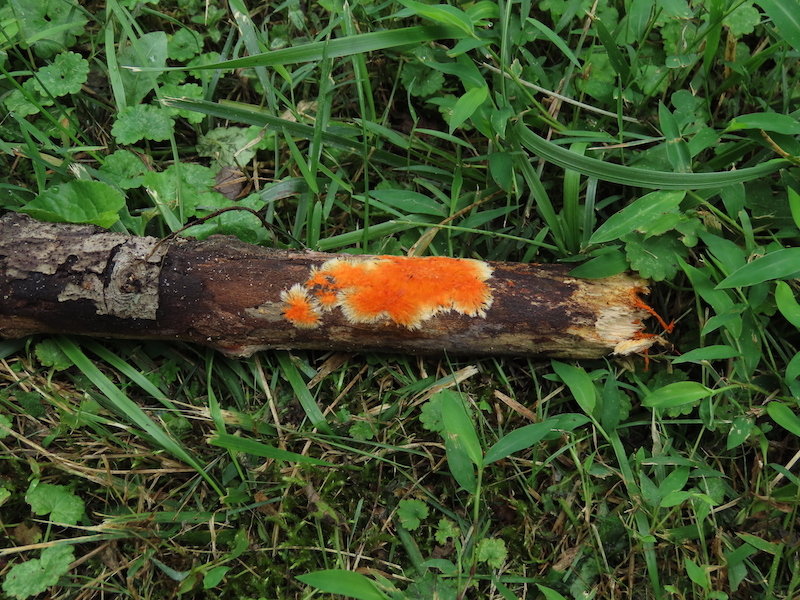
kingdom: Fungi
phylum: Basidiomycota
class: Agaricomycetes
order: Polyporales
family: Meruliaceae
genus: Hydnophlebia
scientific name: Hydnophlebia chrysorhiza
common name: Spreading yellow tooth
